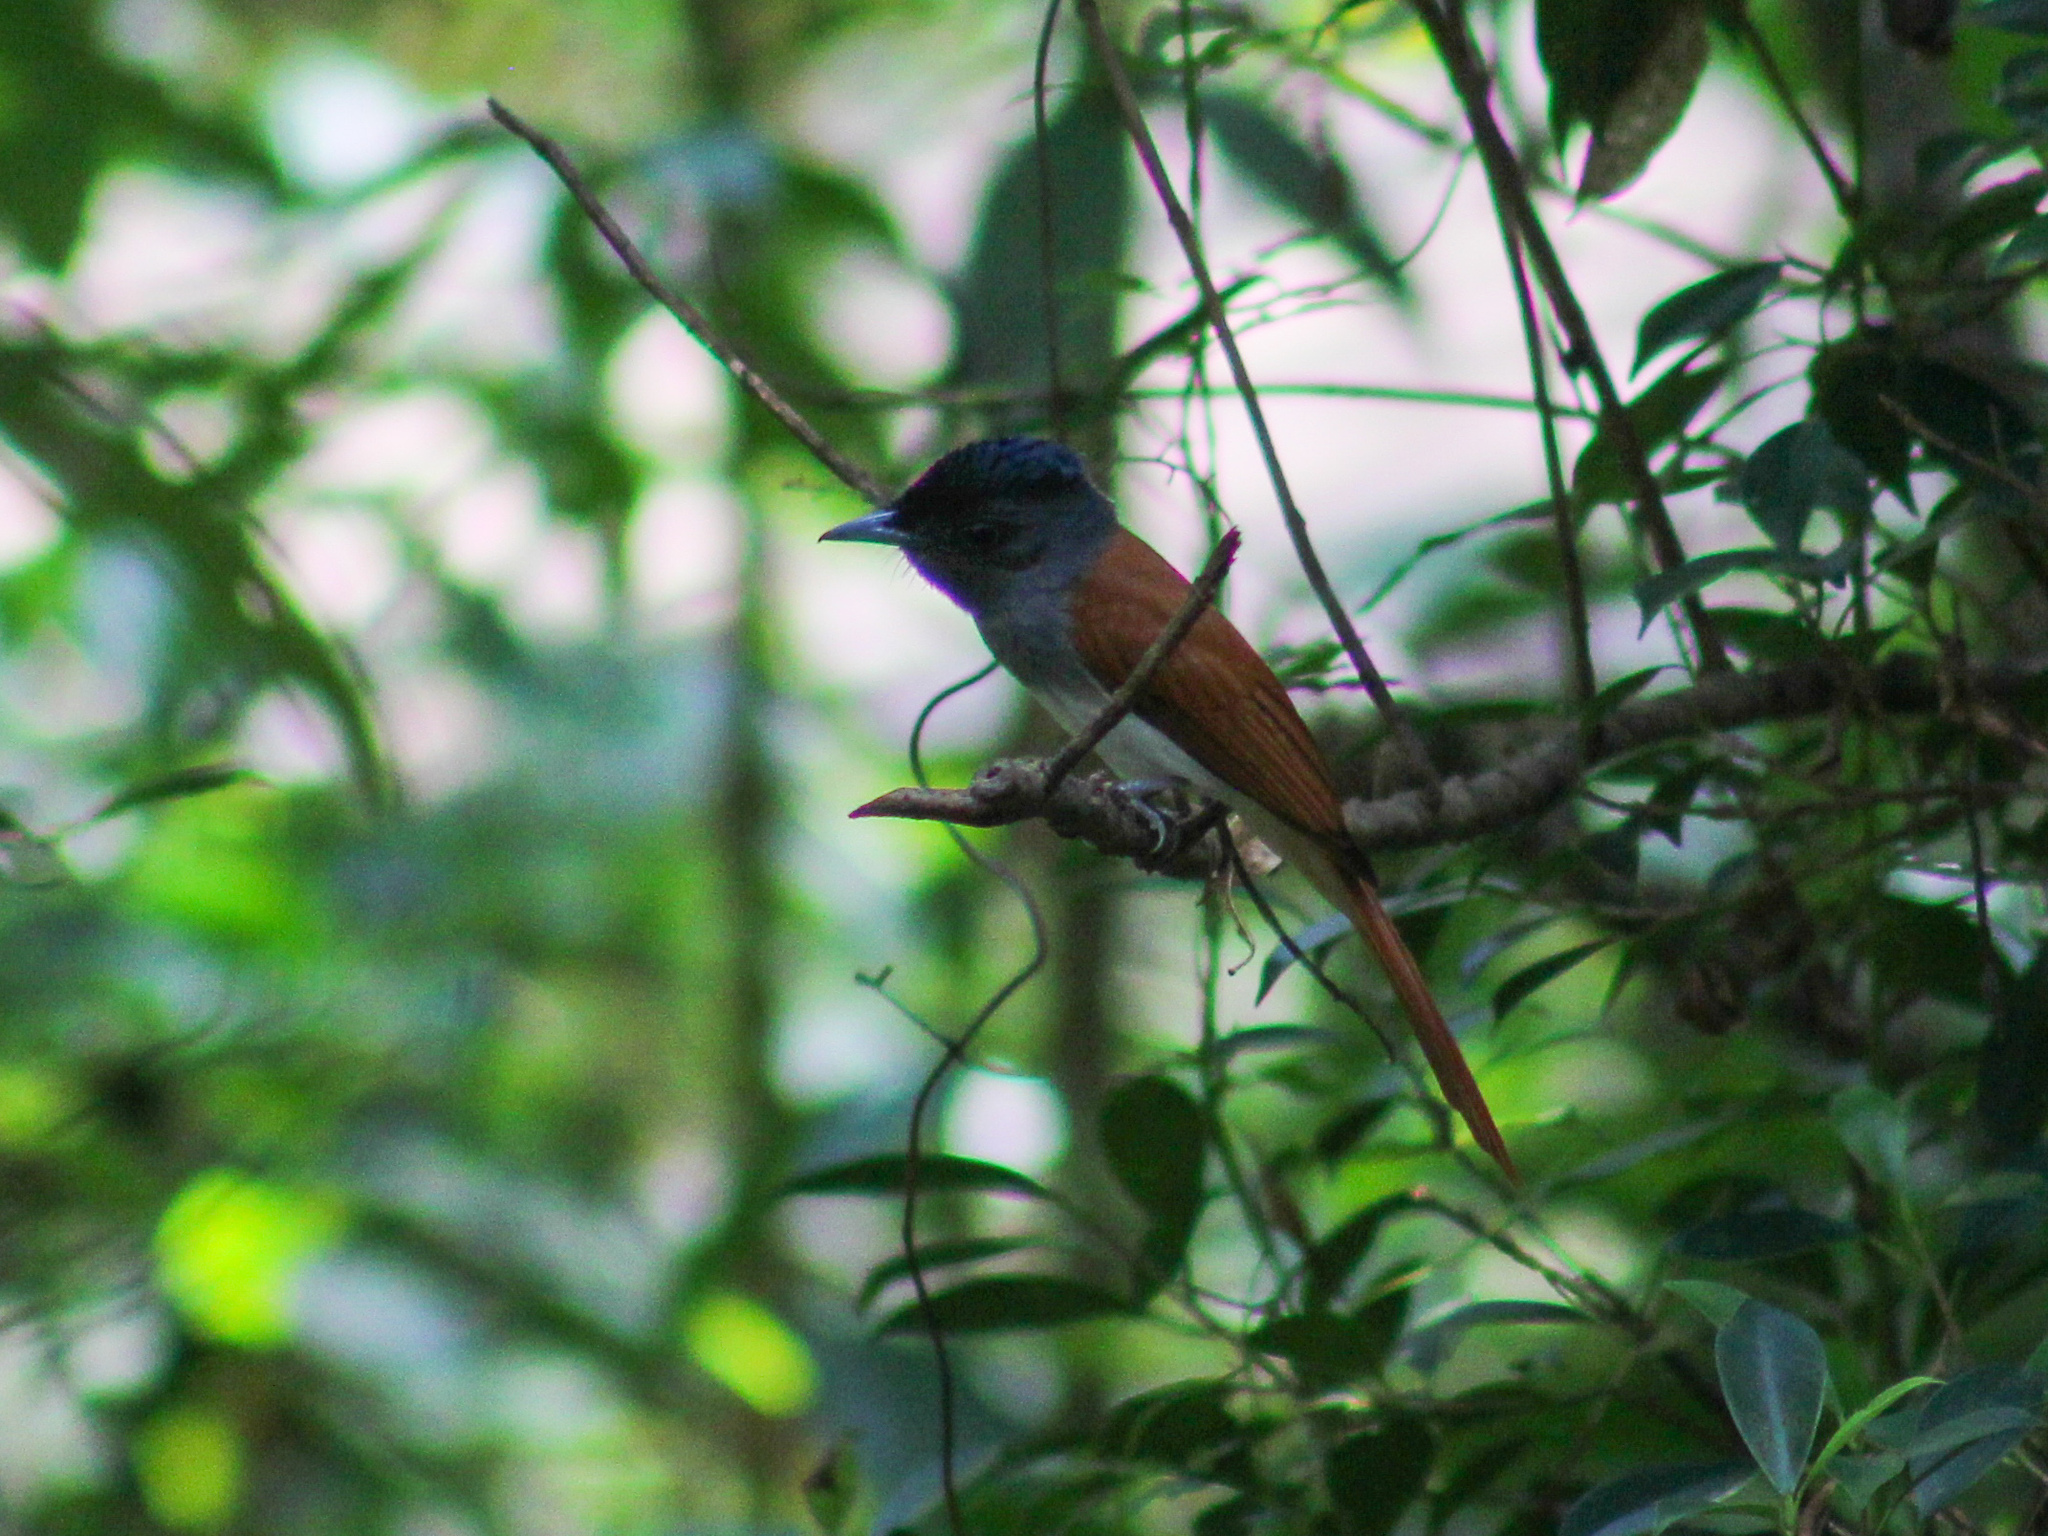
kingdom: Animalia
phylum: Chordata
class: Aves
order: Passeriformes
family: Monarchidae
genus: Terpsiphone
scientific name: Terpsiphone paradisi
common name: Indian paradise flycatcher
